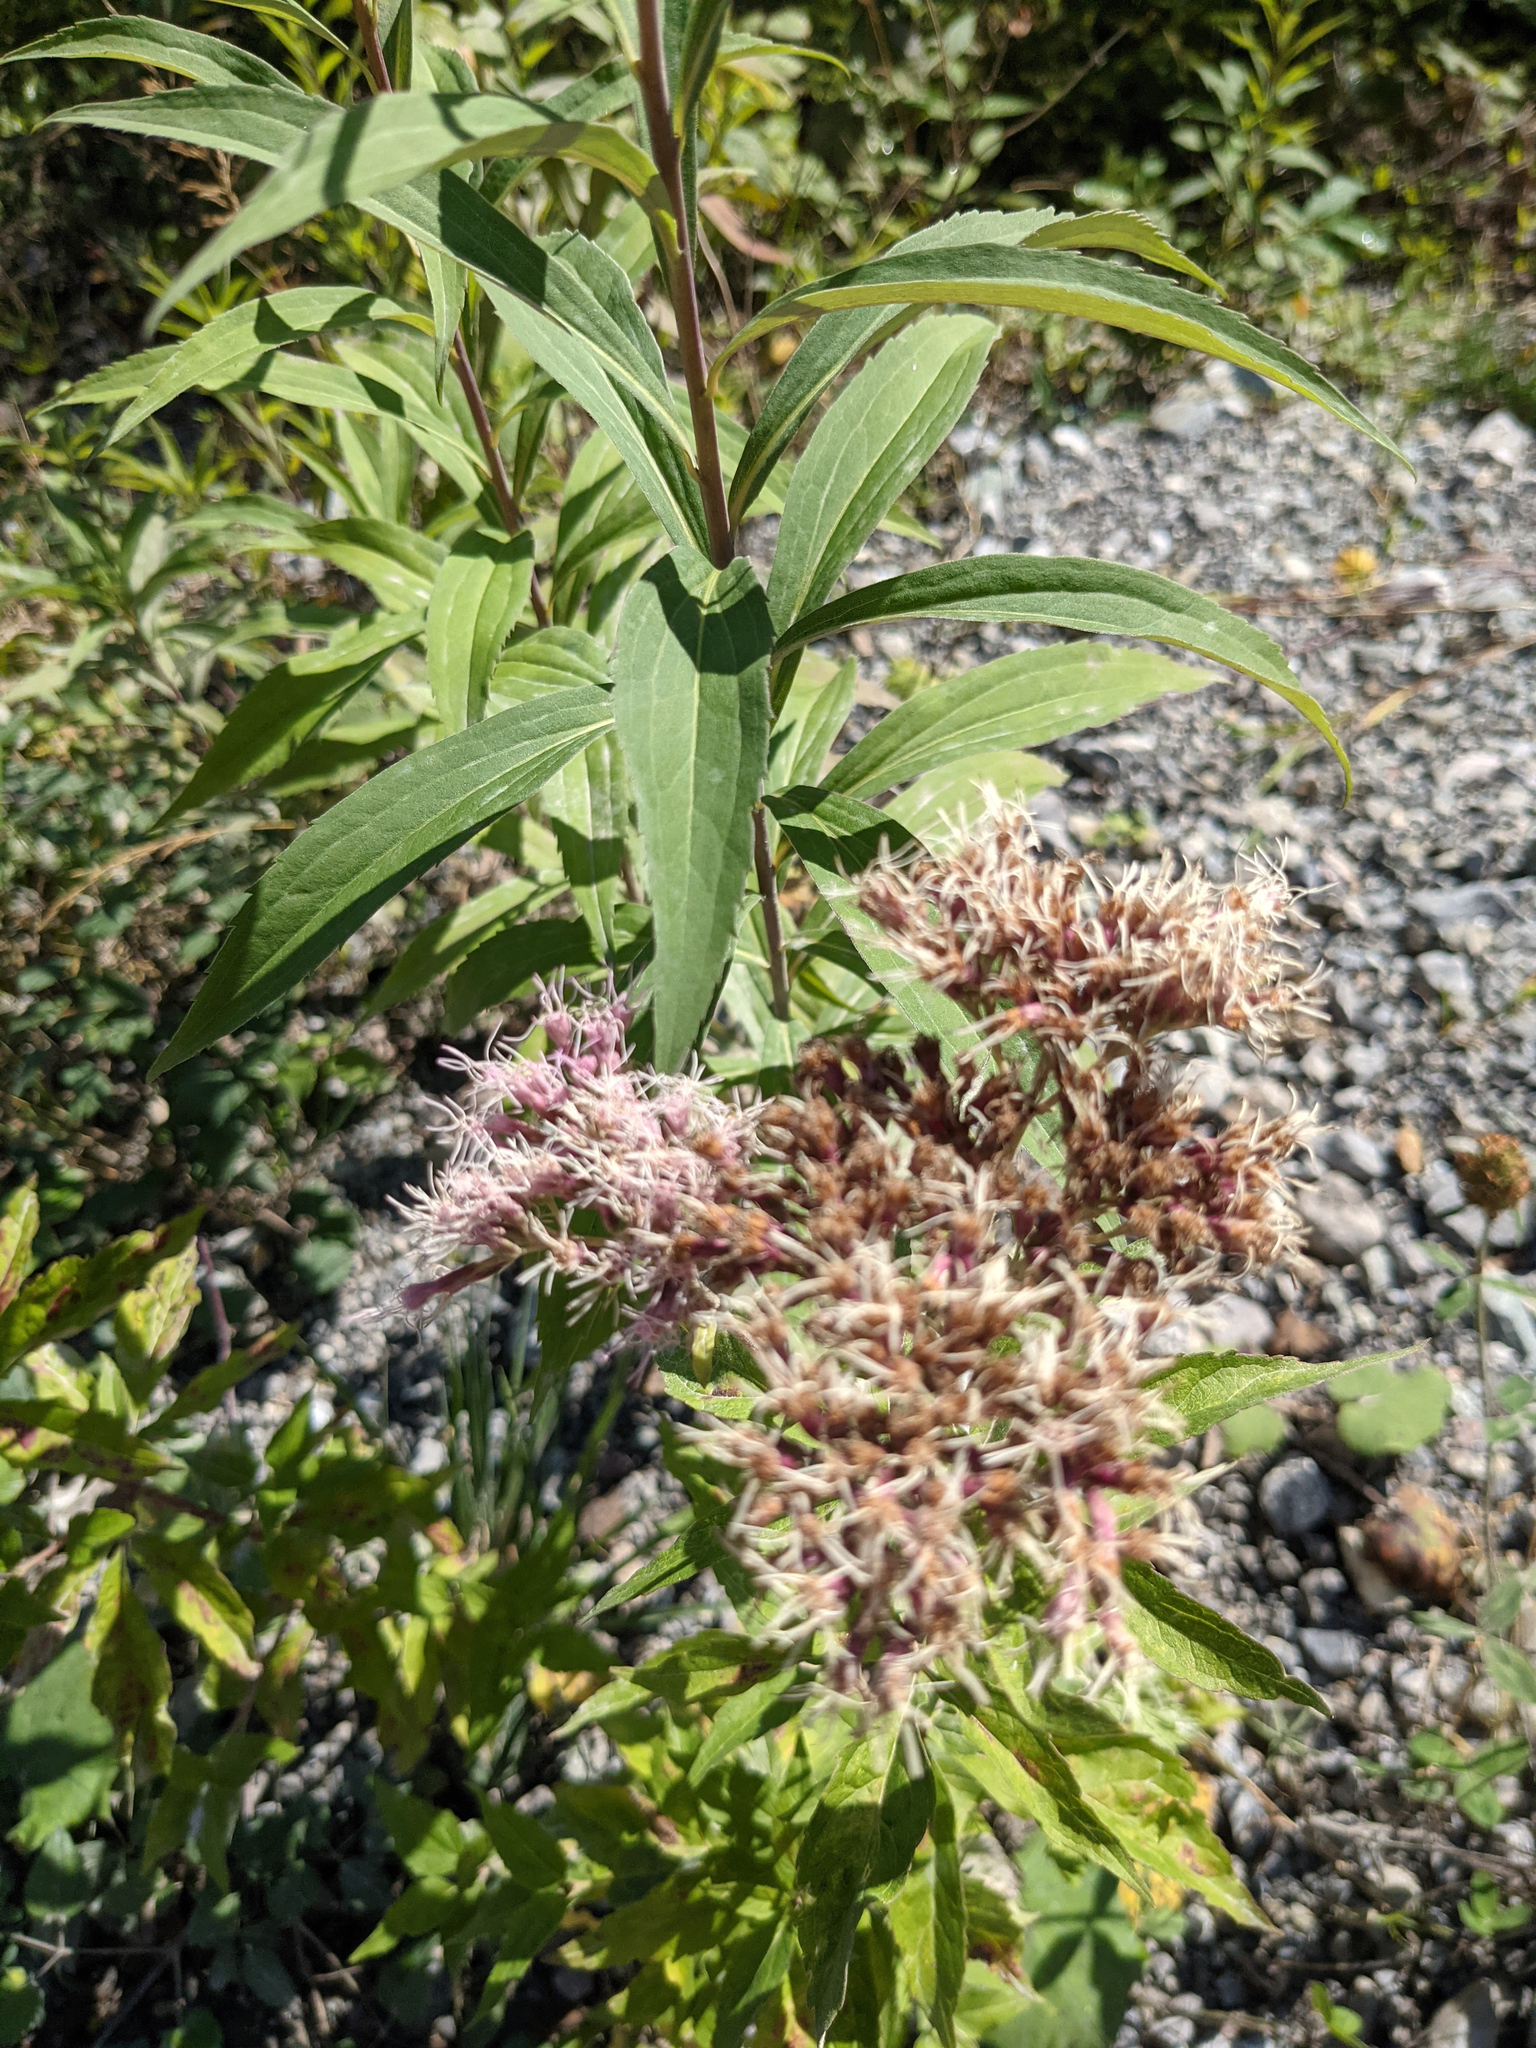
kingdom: Plantae
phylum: Tracheophyta
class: Magnoliopsida
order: Asterales
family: Asteraceae
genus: Eupatorium
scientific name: Eupatorium cannabinum
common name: Hemp-agrimony
